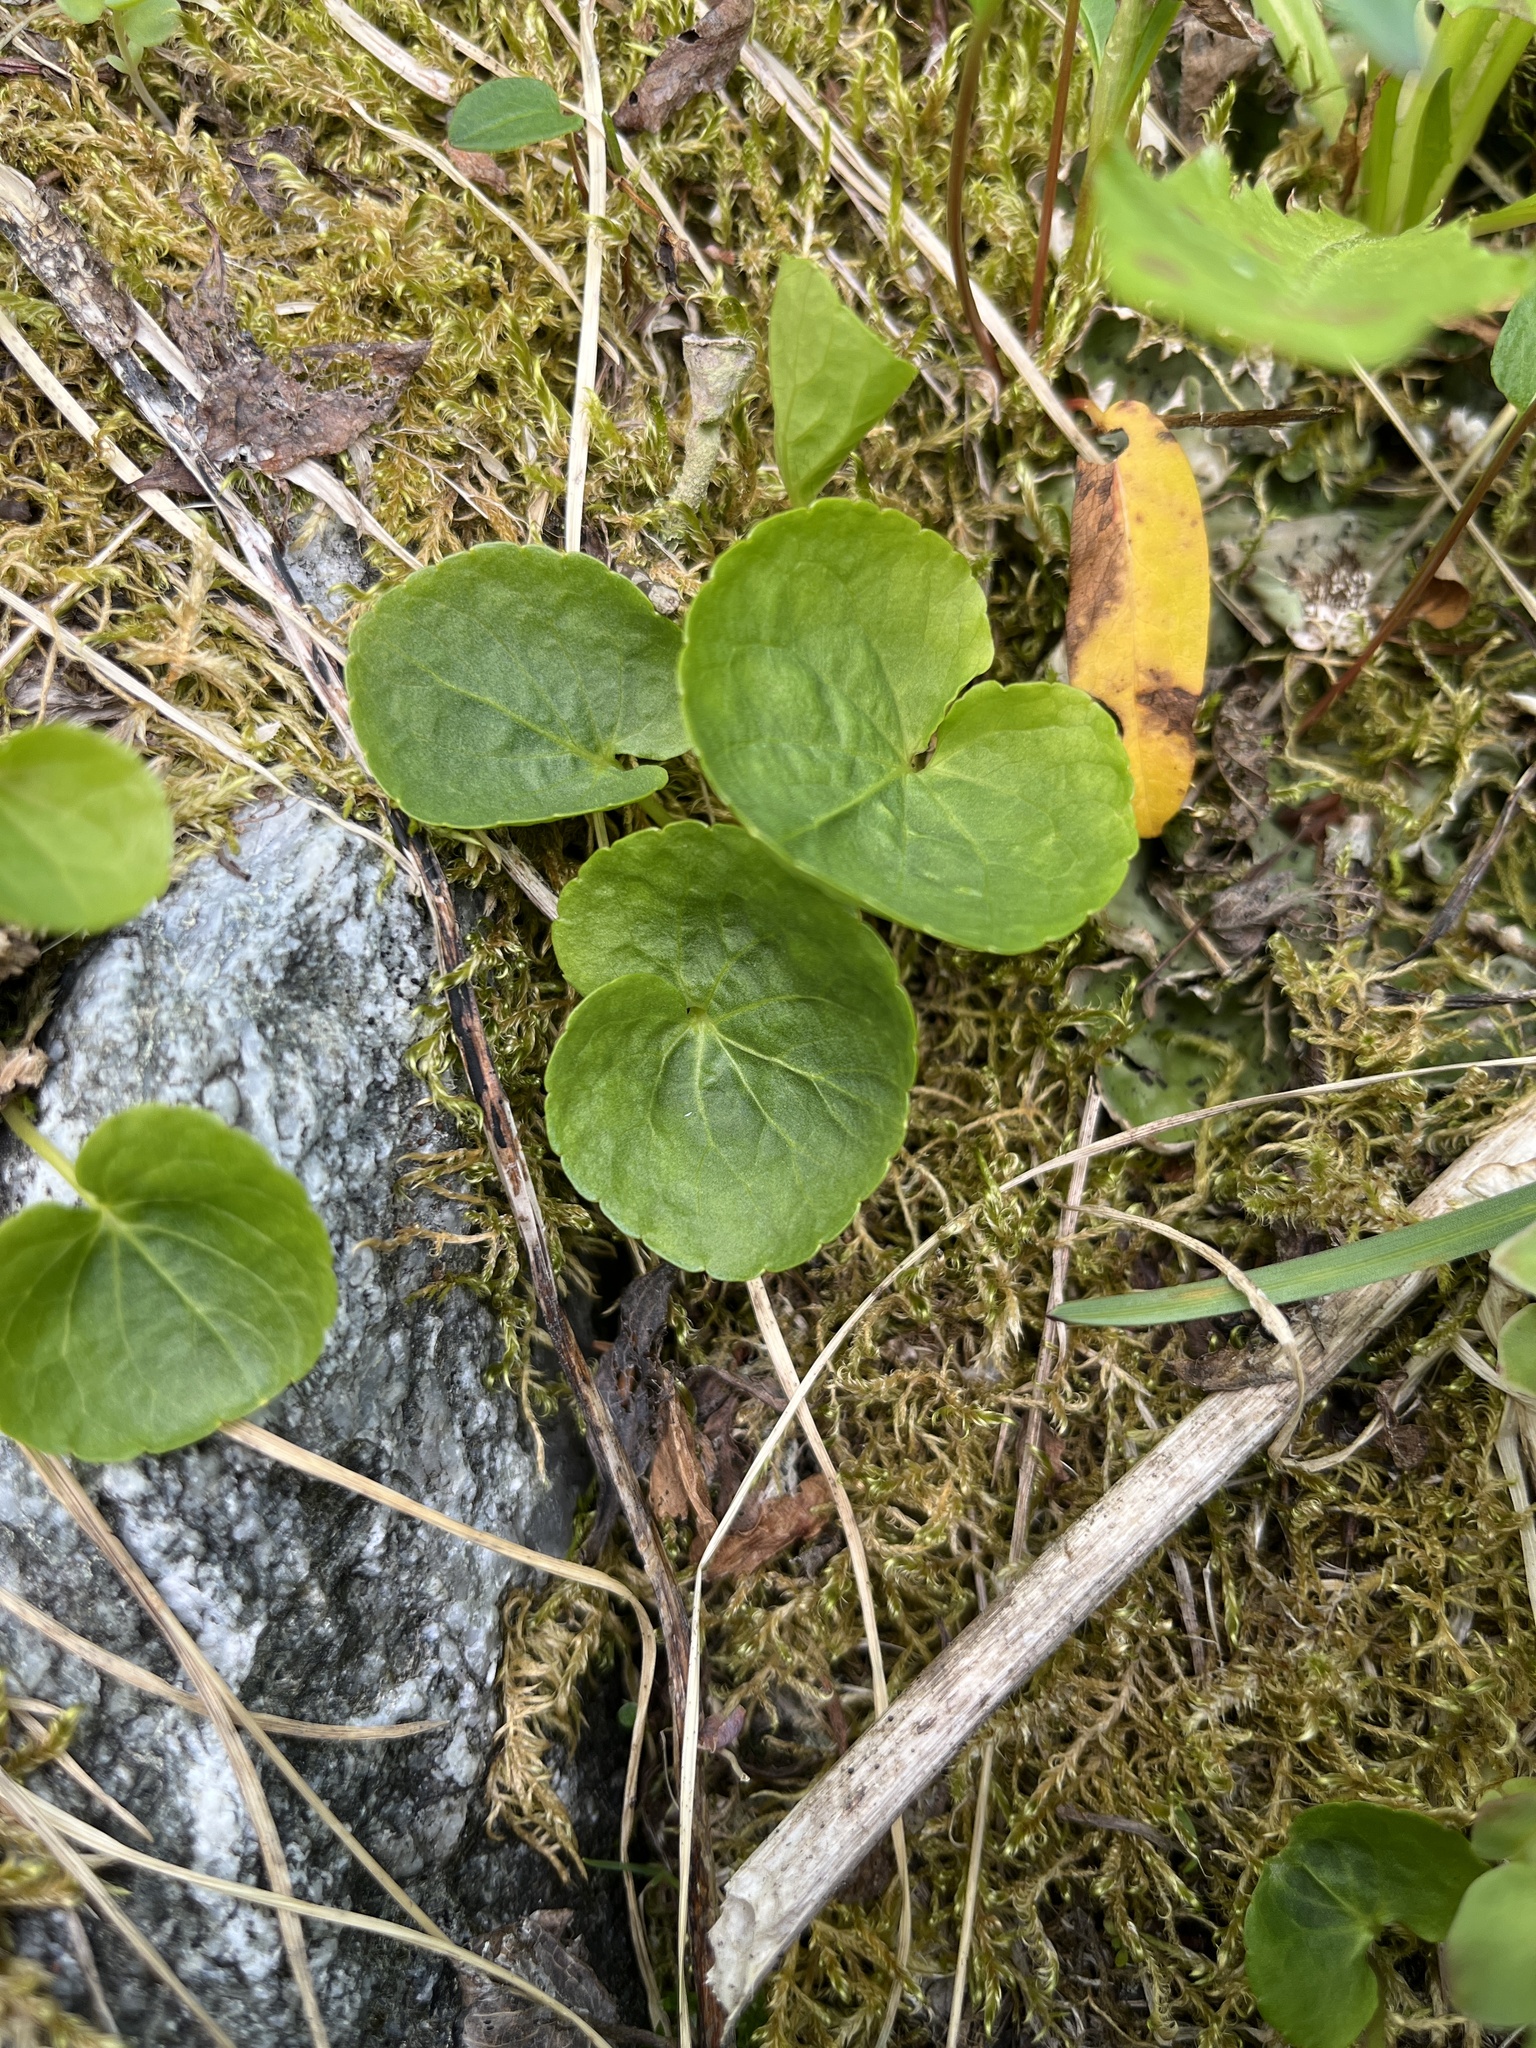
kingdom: Plantae
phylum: Tracheophyta
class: Magnoliopsida
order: Malpighiales
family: Violaceae
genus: Viola
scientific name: Viola palustris
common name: Marsh violet
